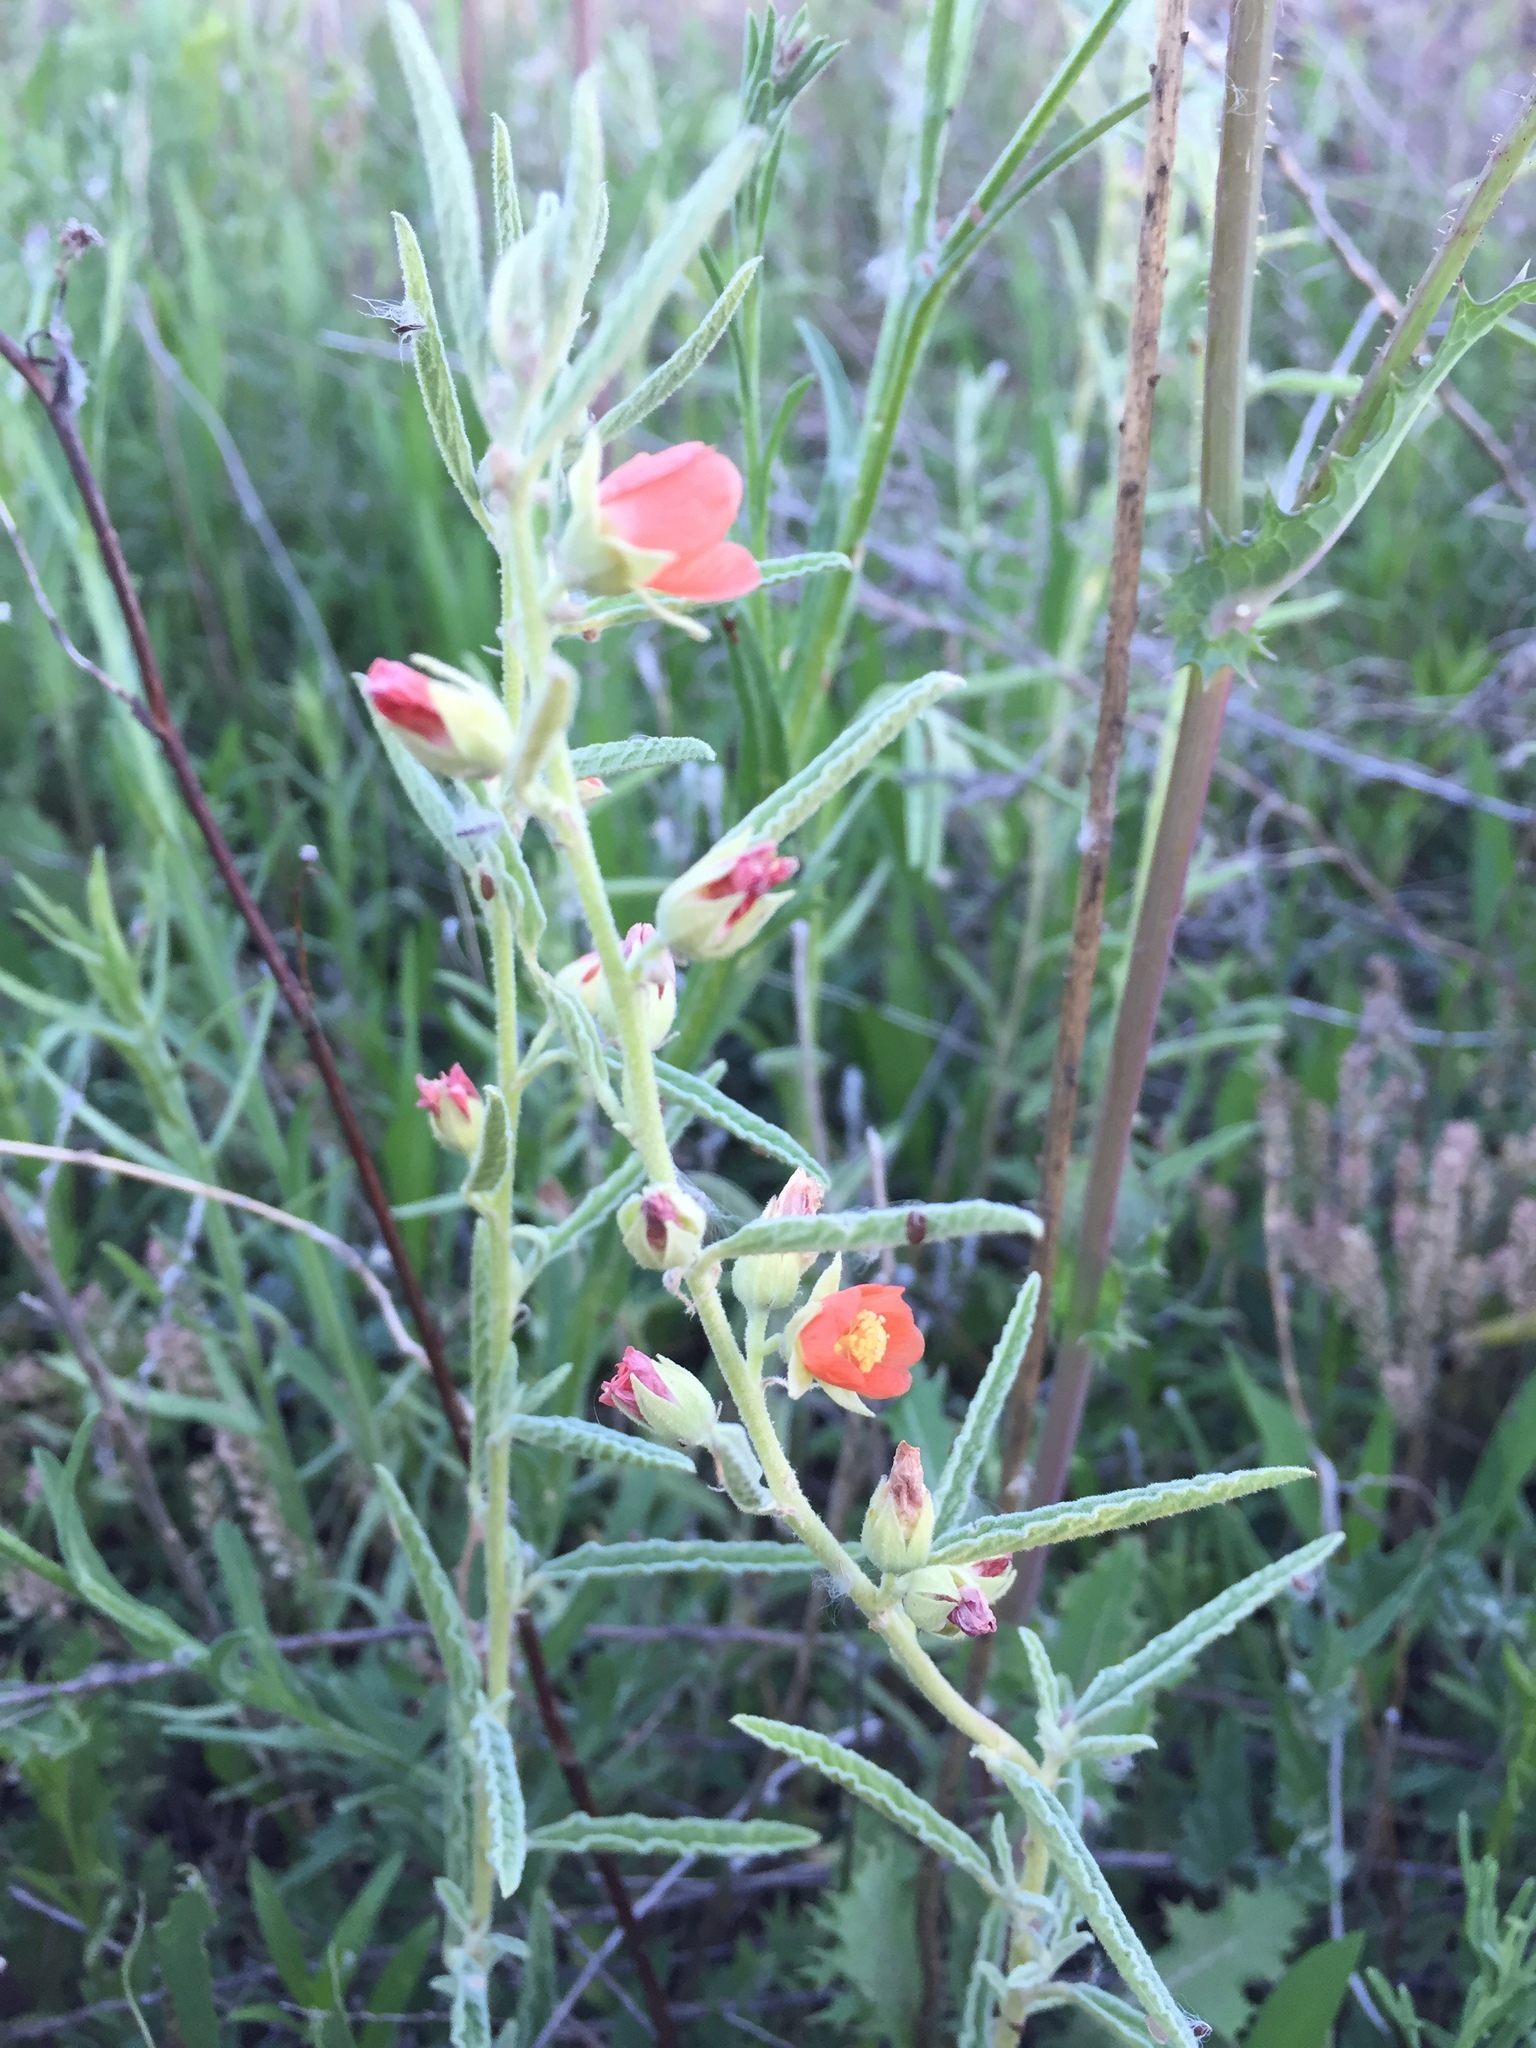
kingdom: Plantae
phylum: Tracheophyta
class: Magnoliopsida
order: Malvales
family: Malvaceae
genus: Sphaeralcea
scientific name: Sphaeralcea angustifolia
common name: Copper globe-mallow
